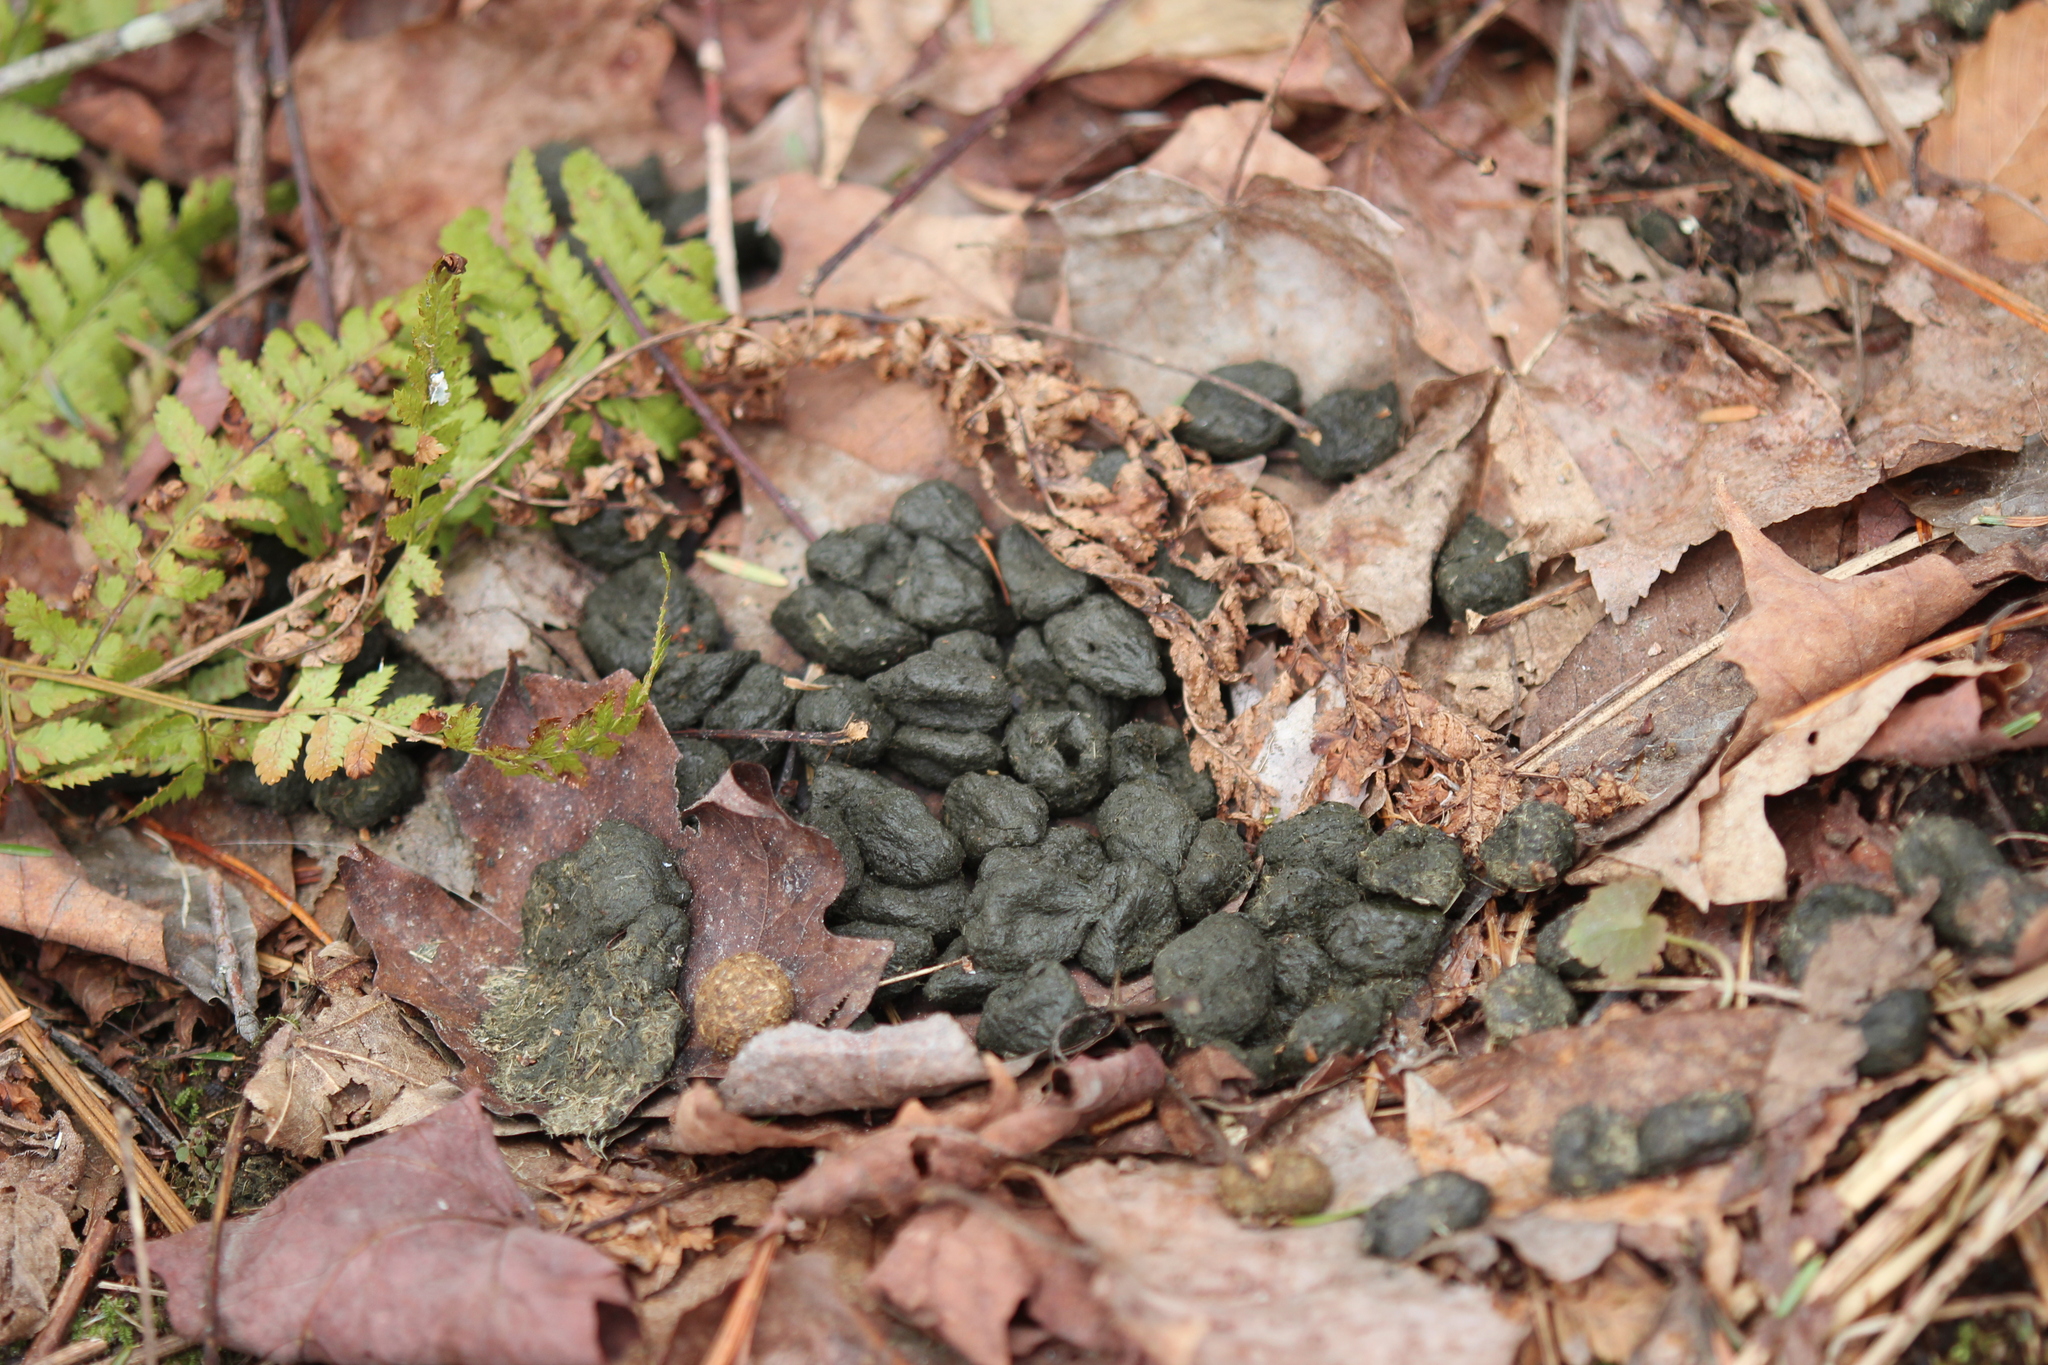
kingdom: Animalia
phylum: Chordata
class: Mammalia
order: Artiodactyla
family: Cervidae
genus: Odocoileus
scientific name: Odocoileus virginianus
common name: White-tailed deer
